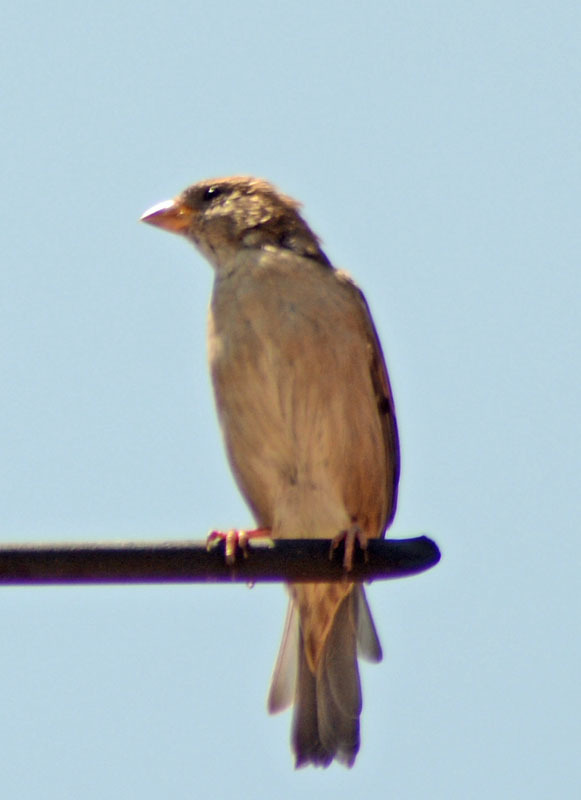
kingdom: Animalia
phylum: Chordata
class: Aves
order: Passeriformes
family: Passeridae
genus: Passer
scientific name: Passer domesticus
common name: House sparrow
